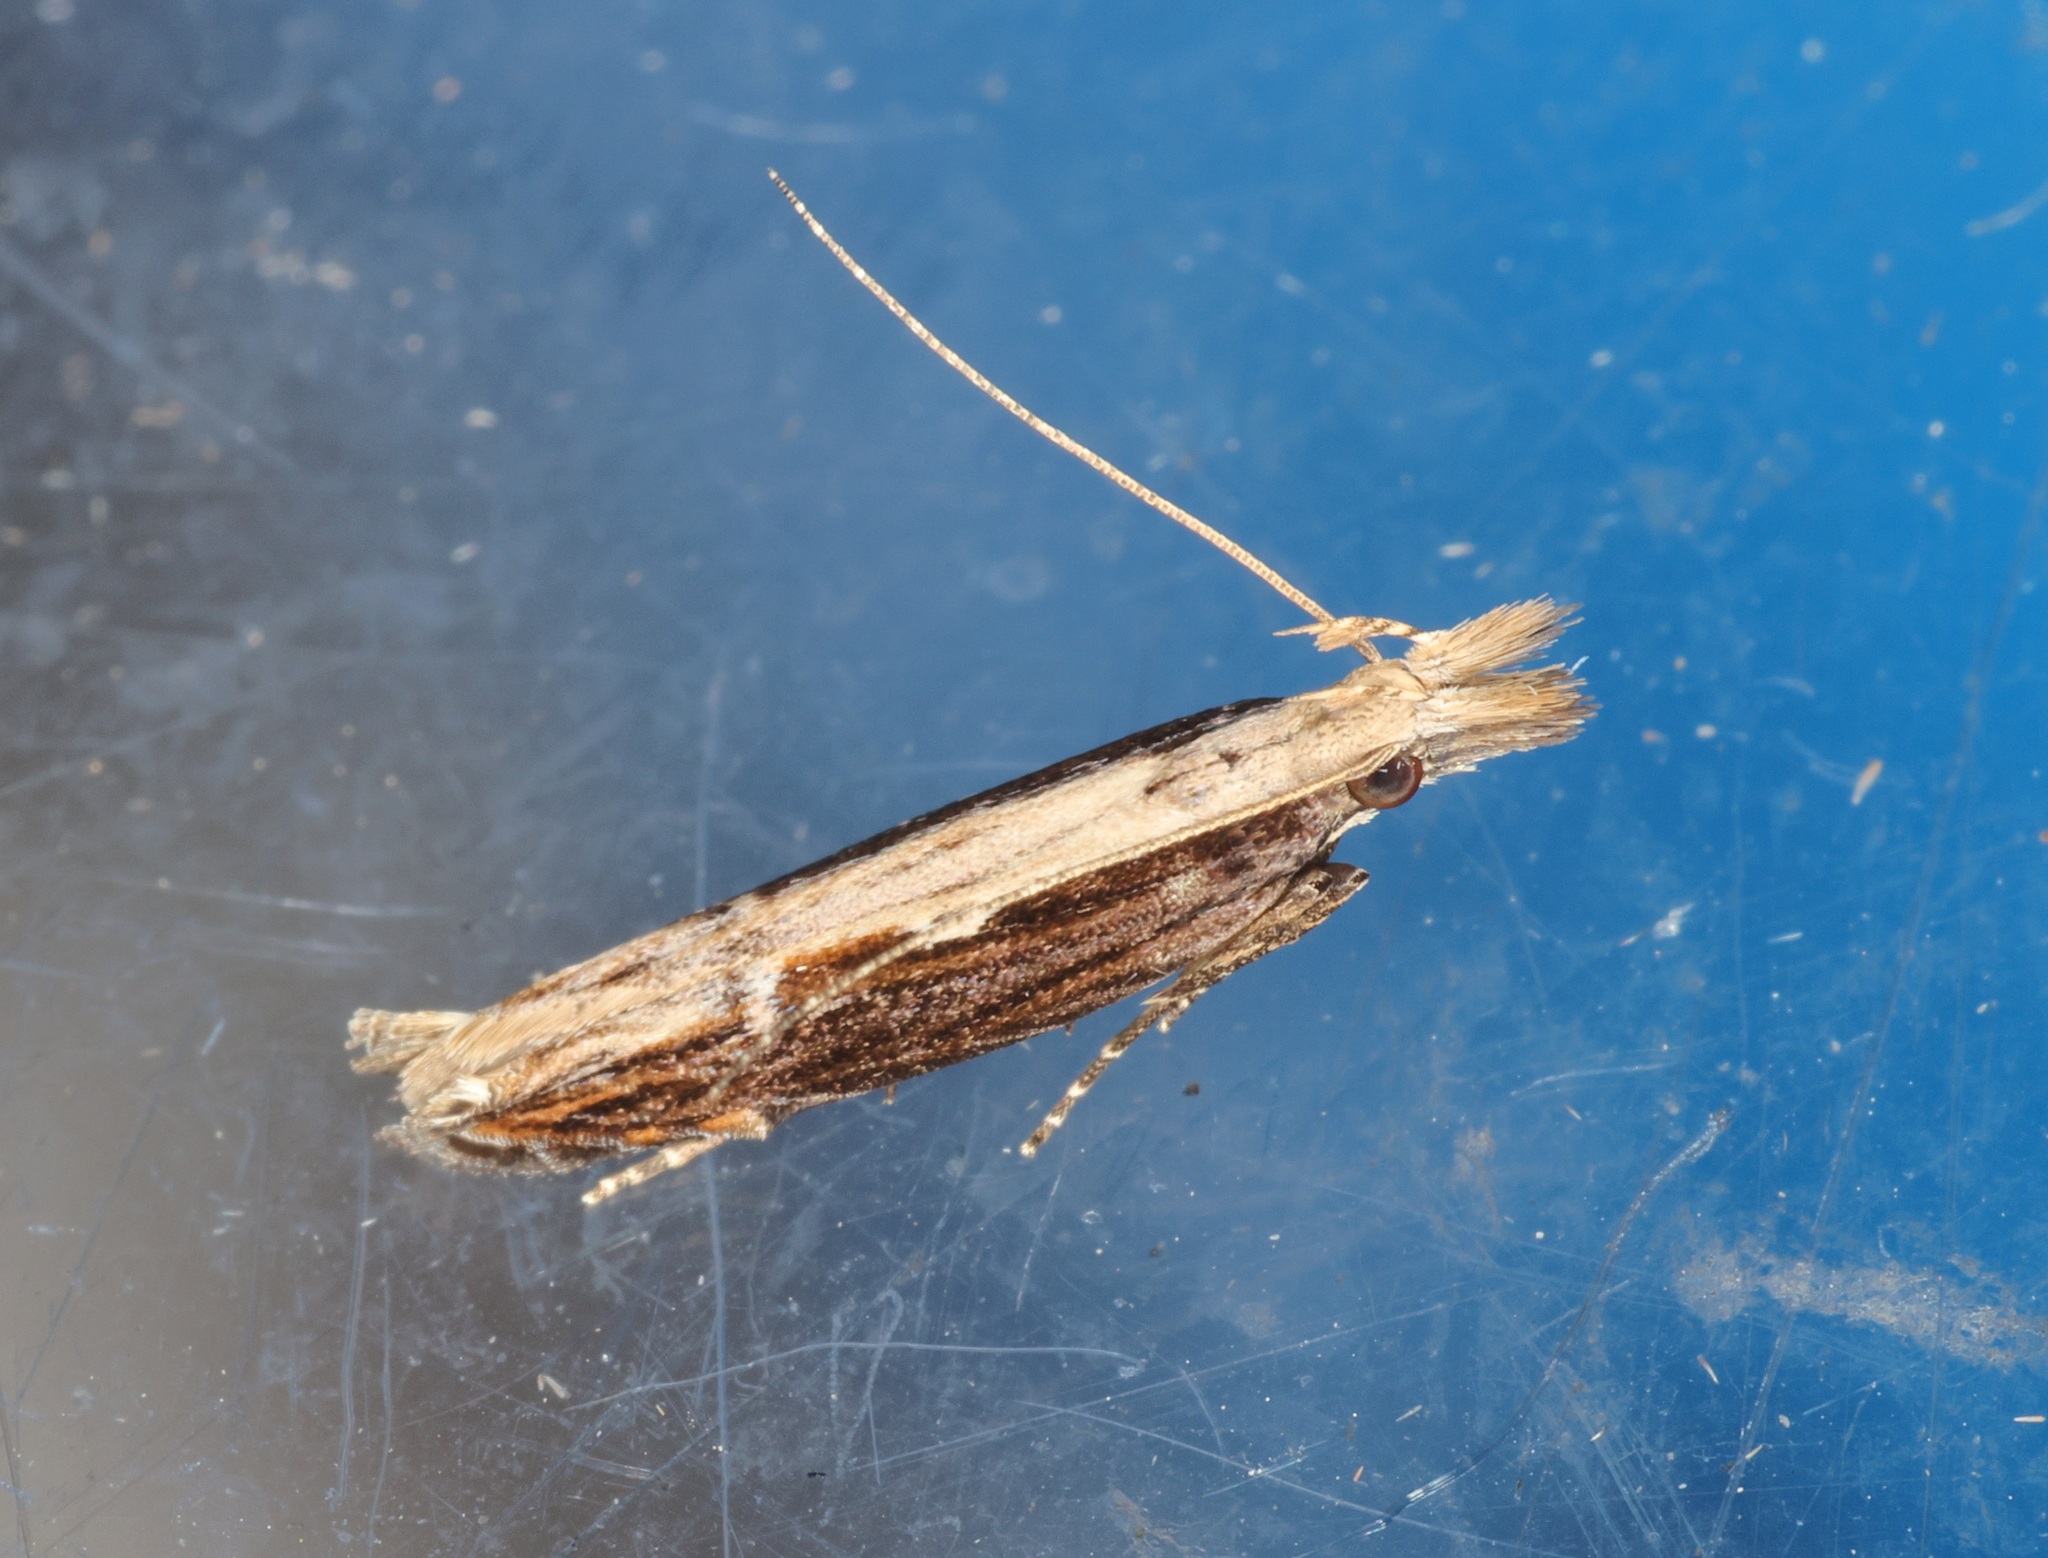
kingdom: Animalia
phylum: Arthropoda
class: Insecta
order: Lepidoptera
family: Gelechiidae
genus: Hypatima
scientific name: Hypatima spathota
